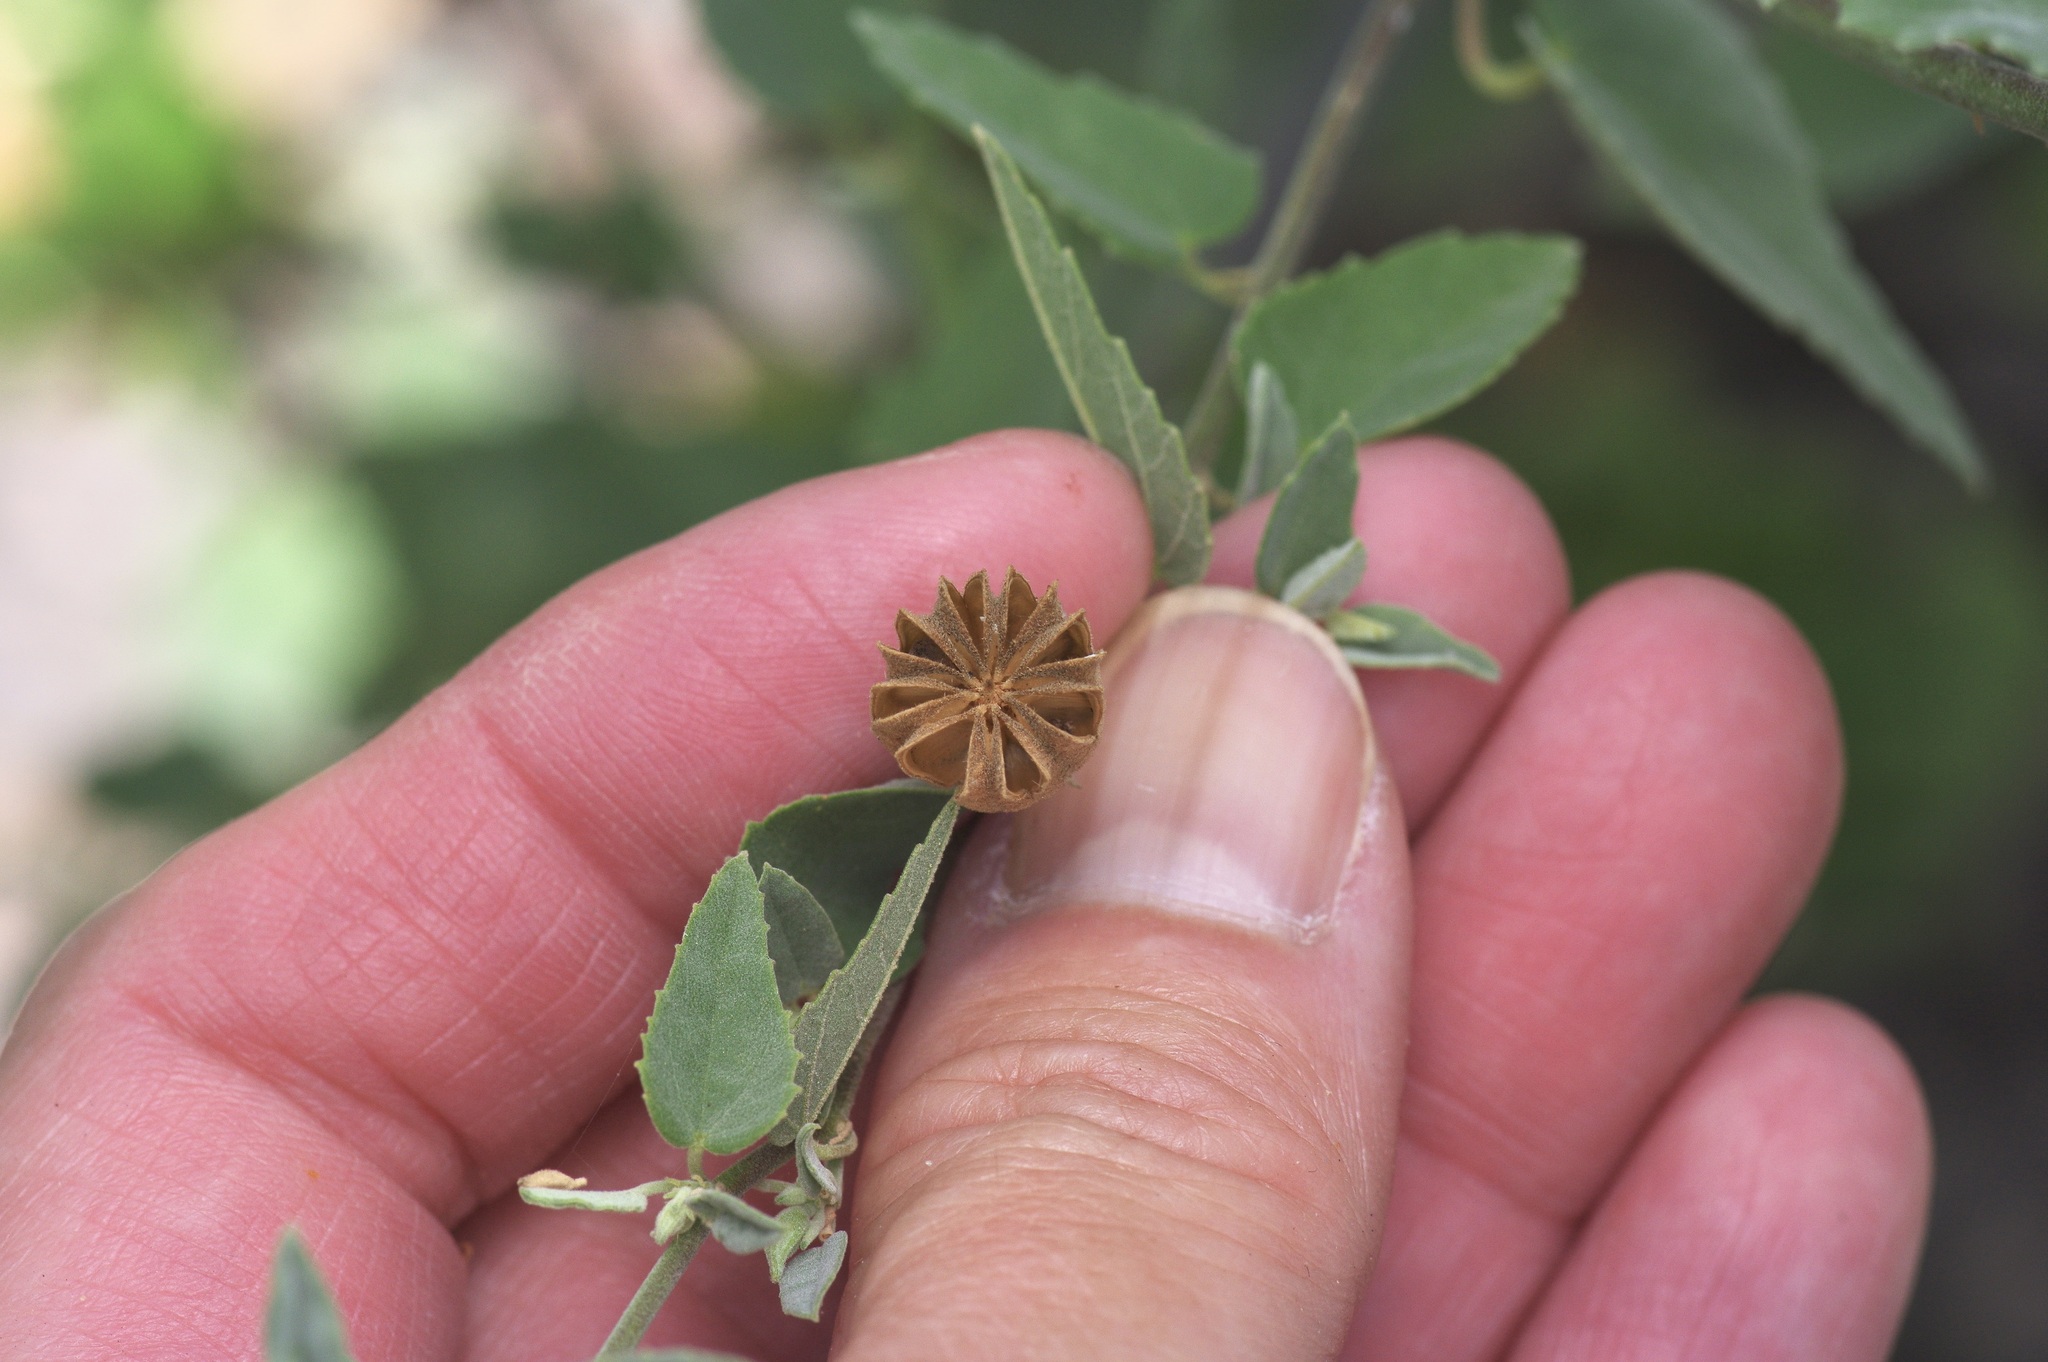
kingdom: Plantae
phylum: Tracheophyta
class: Magnoliopsida
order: Malvales
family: Malvaceae
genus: Abutilon
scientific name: Abutilon fruticosum
